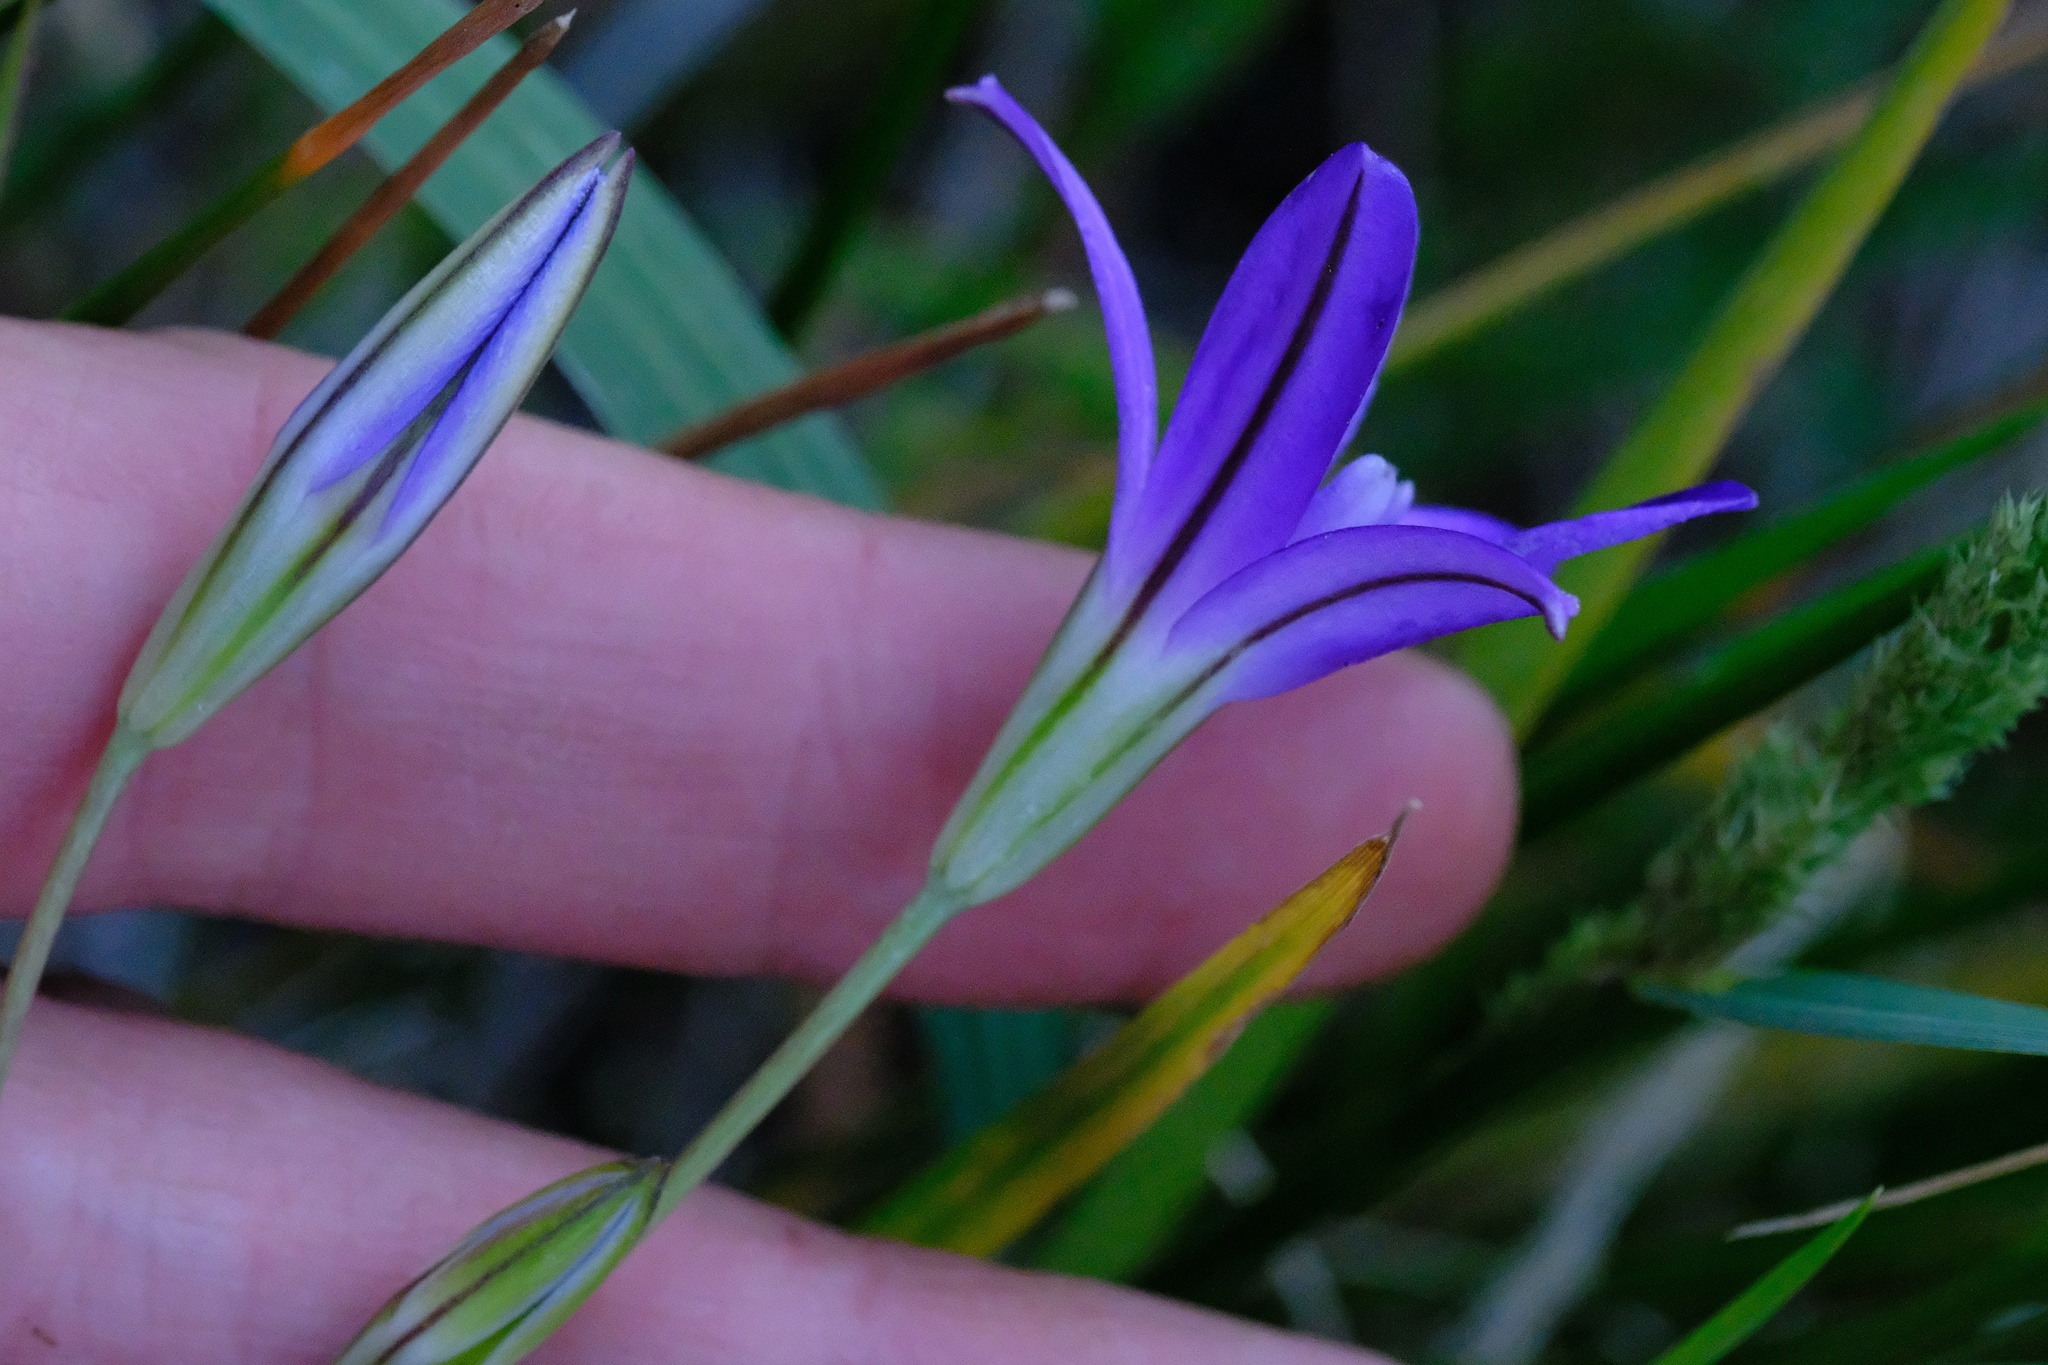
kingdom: Plantae
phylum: Tracheophyta
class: Liliopsida
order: Asparagales
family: Asparagaceae
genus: Brodiaea
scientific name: Brodiaea terrestris
